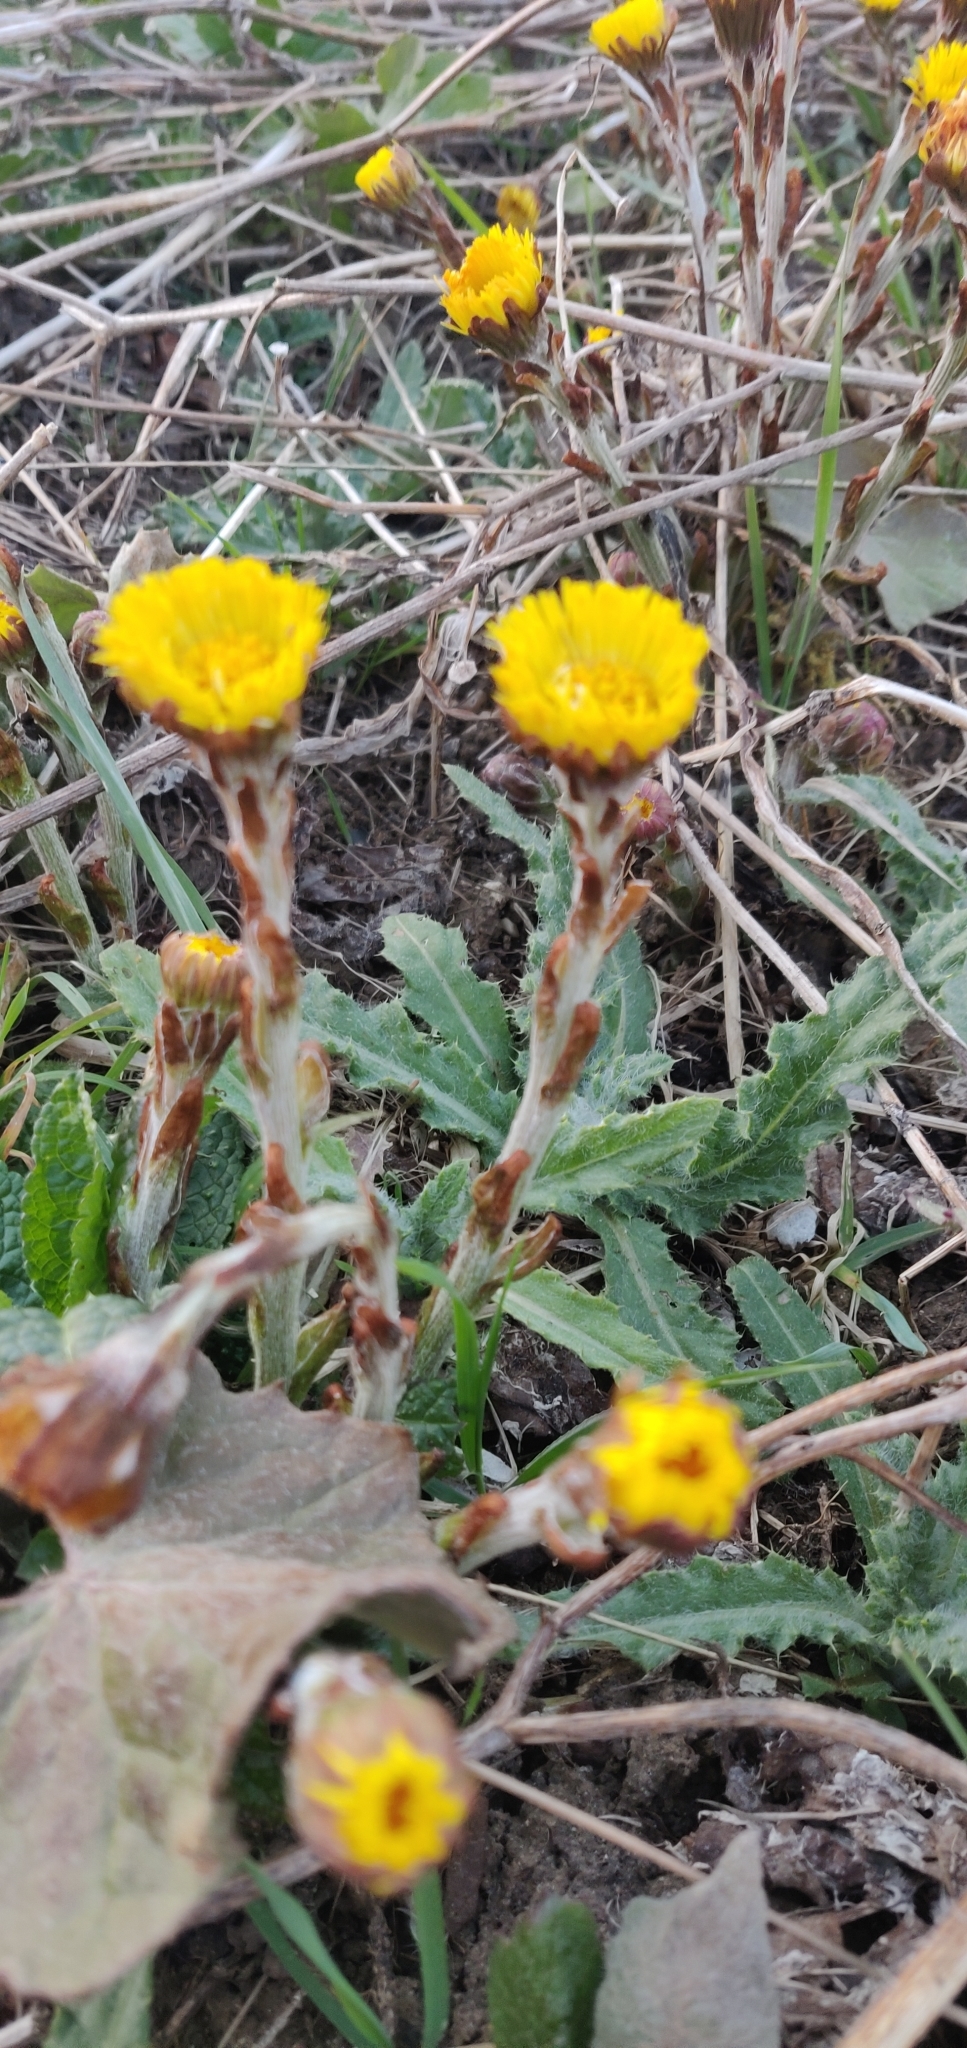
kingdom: Plantae
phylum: Tracheophyta
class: Magnoliopsida
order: Asterales
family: Asteraceae
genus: Tussilago
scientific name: Tussilago farfara
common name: Coltsfoot
